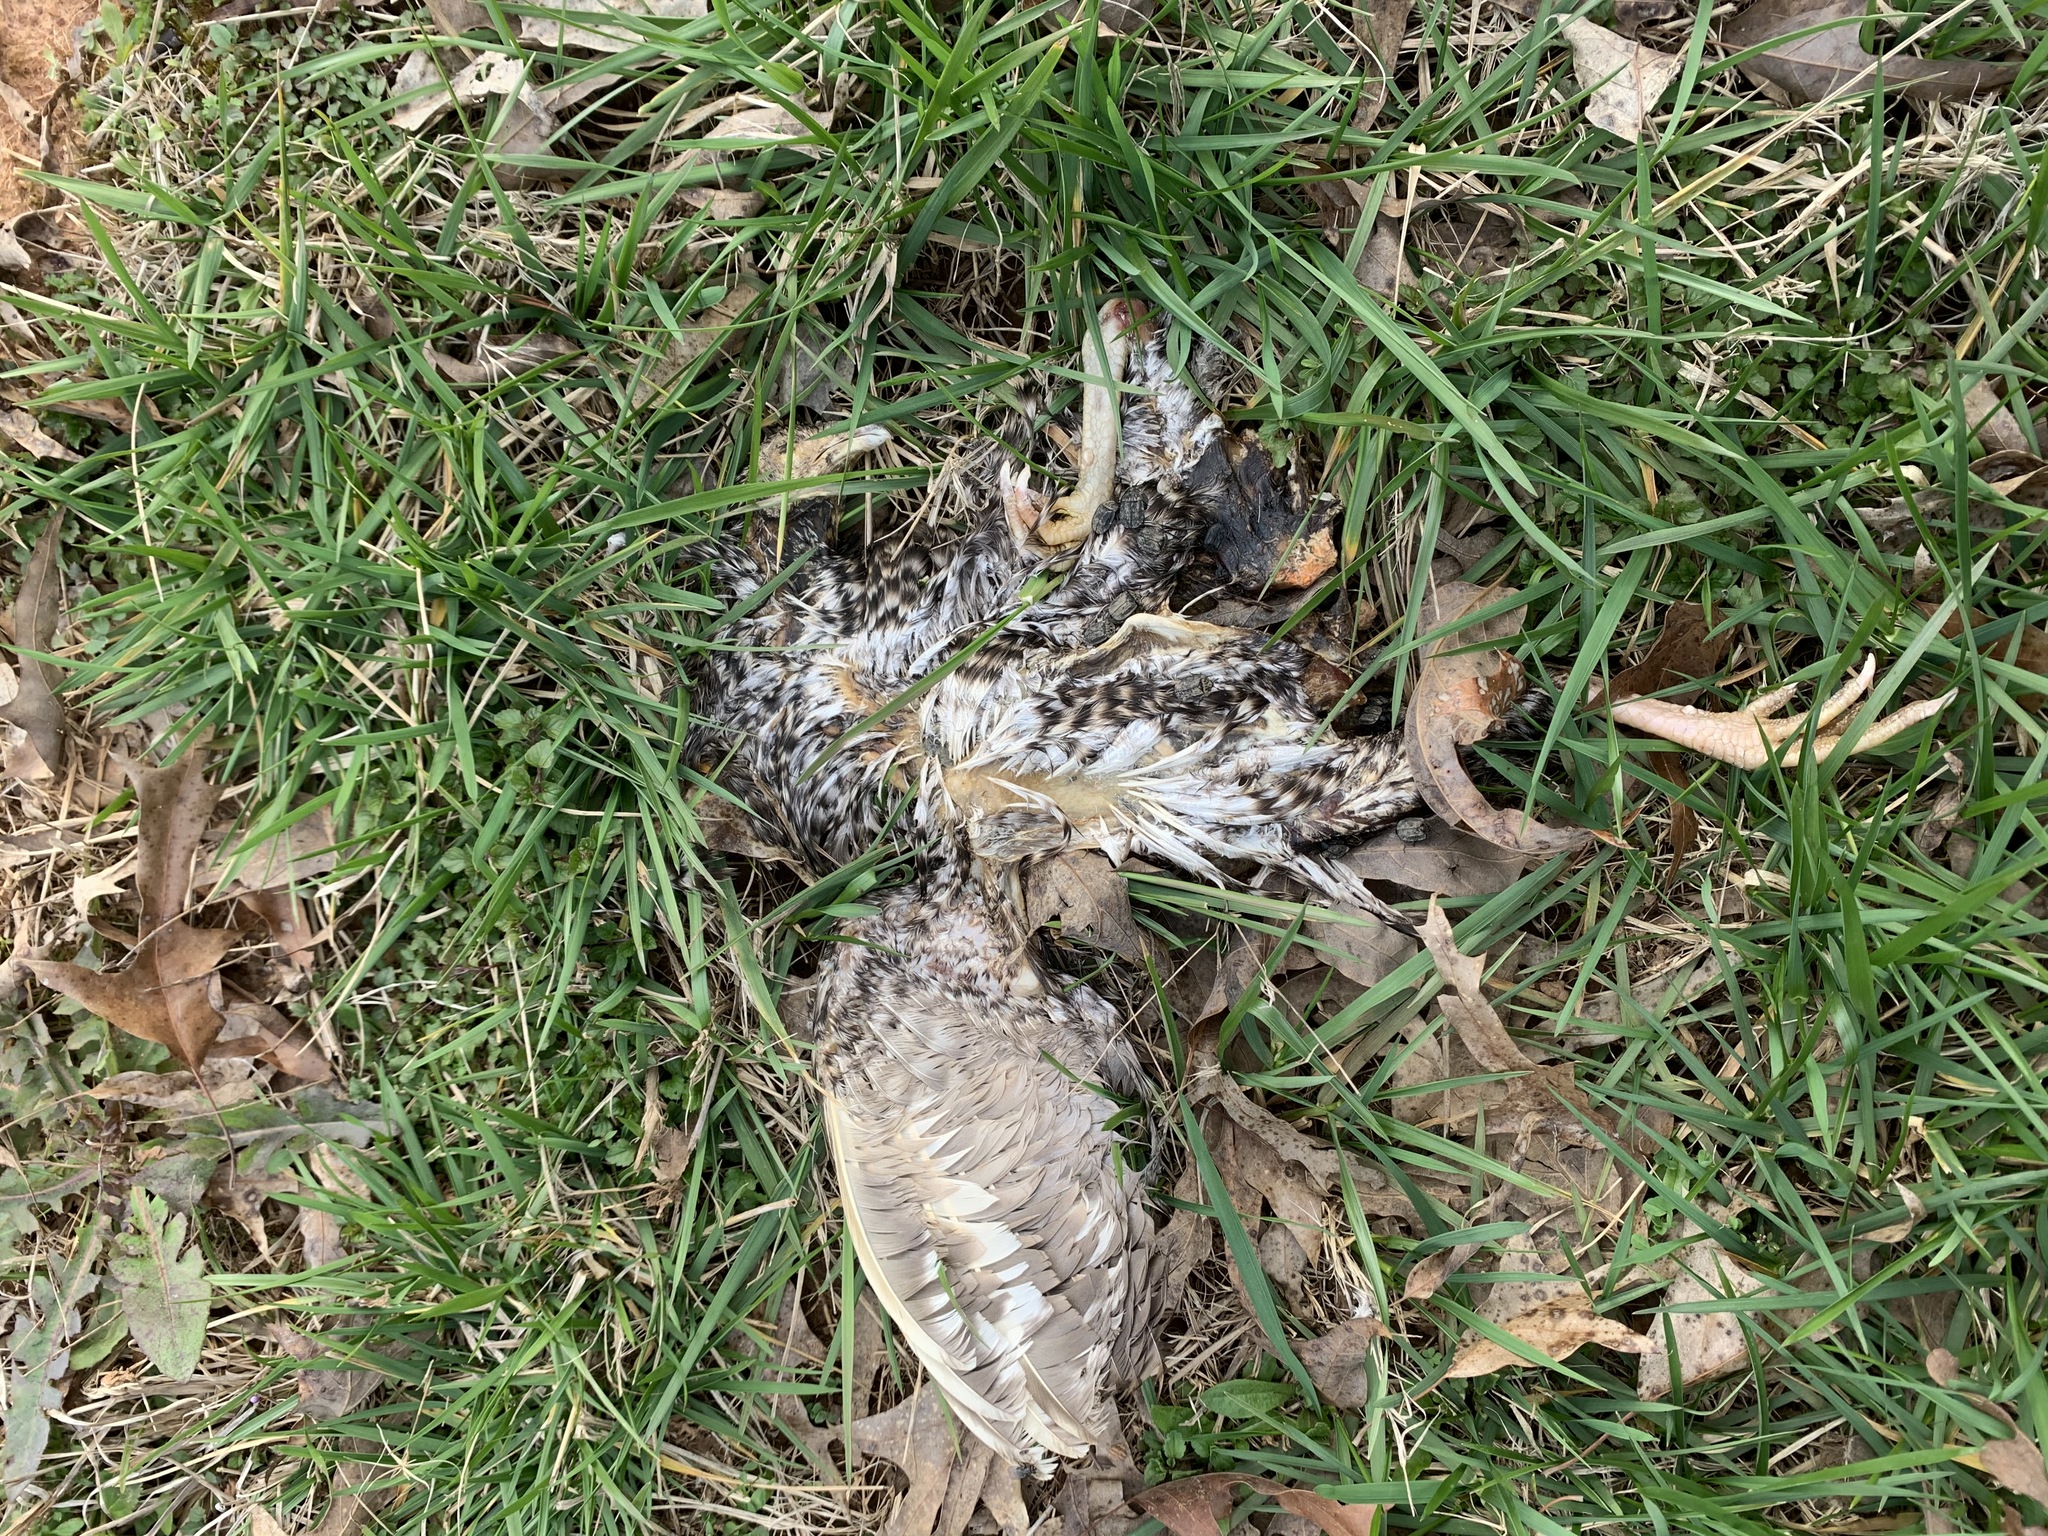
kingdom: Animalia
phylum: Chordata
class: Aves
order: Galliformes
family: Phasianidae
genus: Meleagris
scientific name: Meleagris gallopavo
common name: Wild turkey
